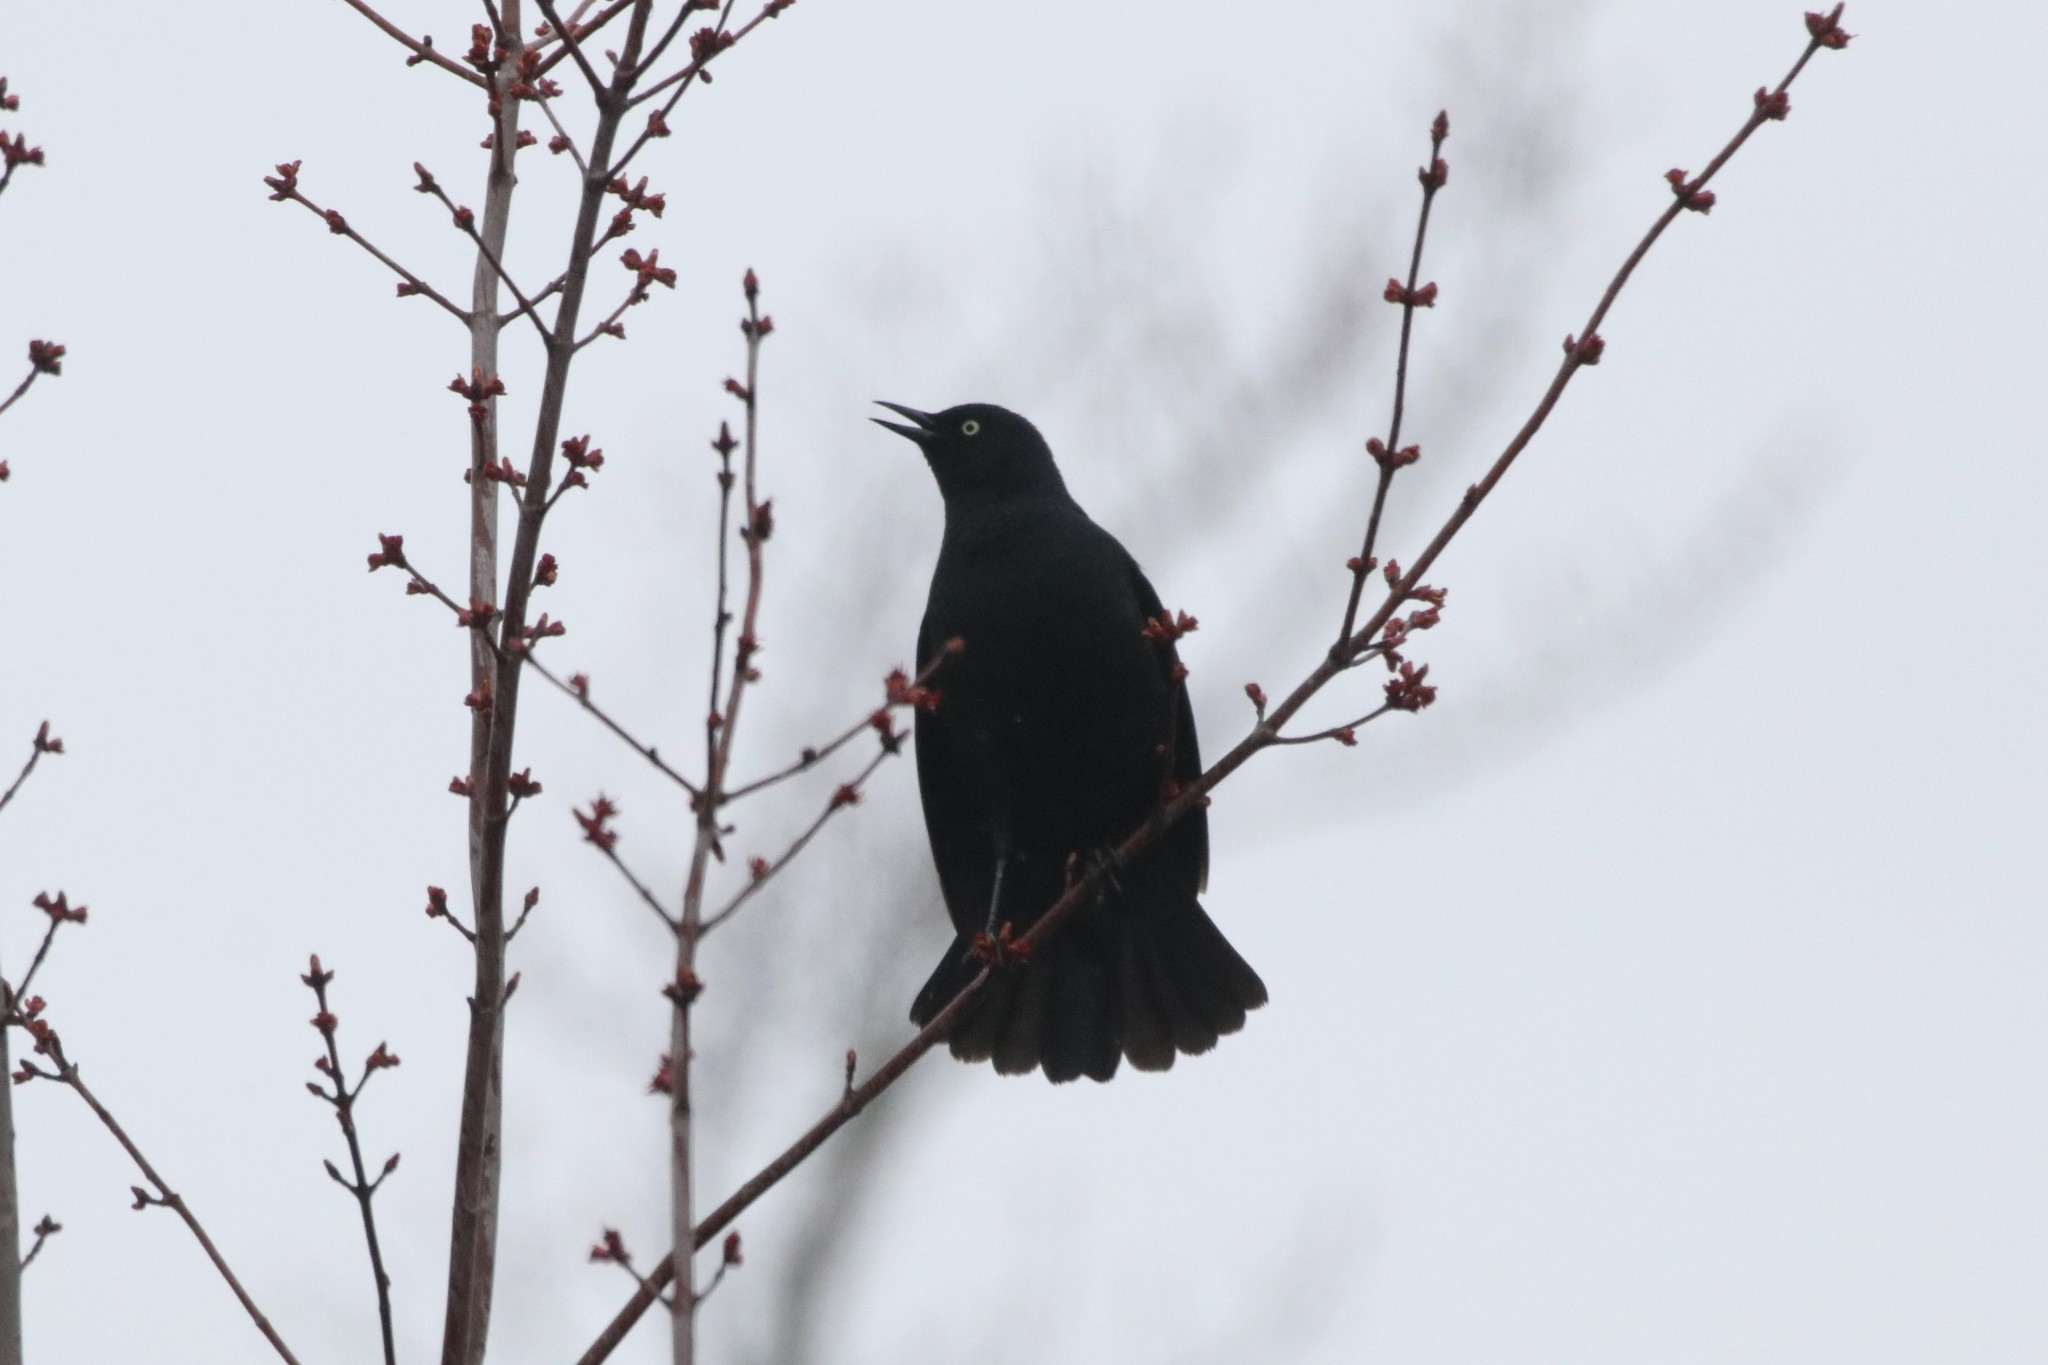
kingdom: Animalia
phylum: Chordata
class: Aves
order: Passeriformes
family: Icteridae
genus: Euphagus
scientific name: Euphagus carolinus
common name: Rusty blackbird
